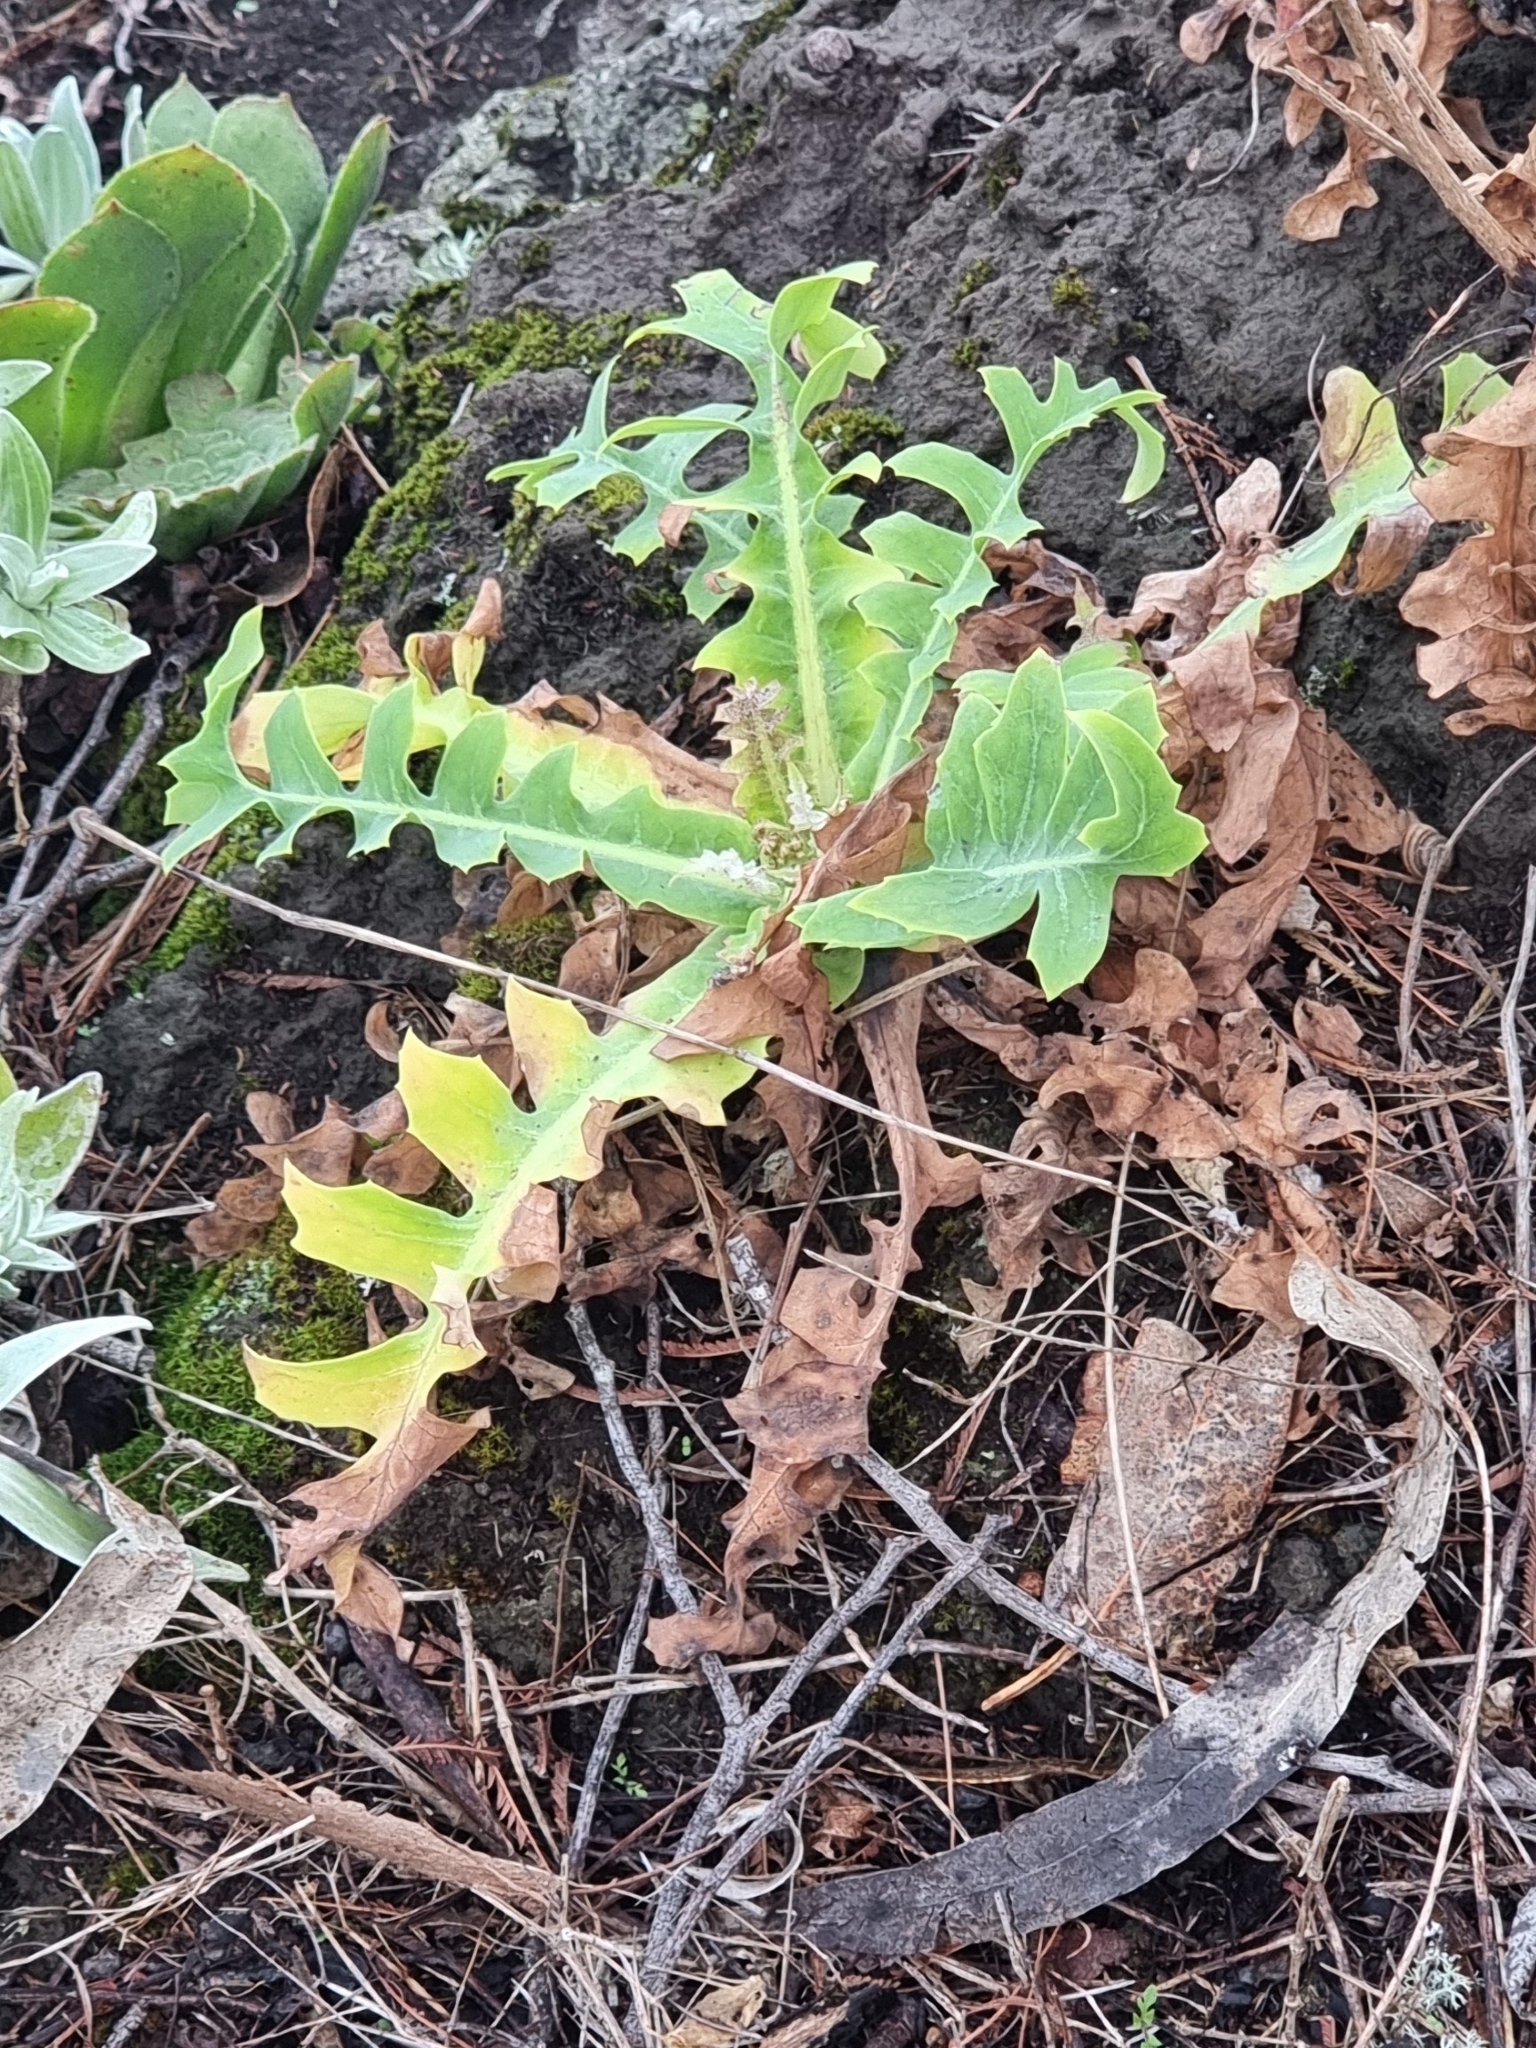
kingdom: Plantae
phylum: Tracheophyta
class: Magnoliopsida
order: Asterales
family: Asteraceae
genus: Sonchus
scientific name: Sonchus latifolius
